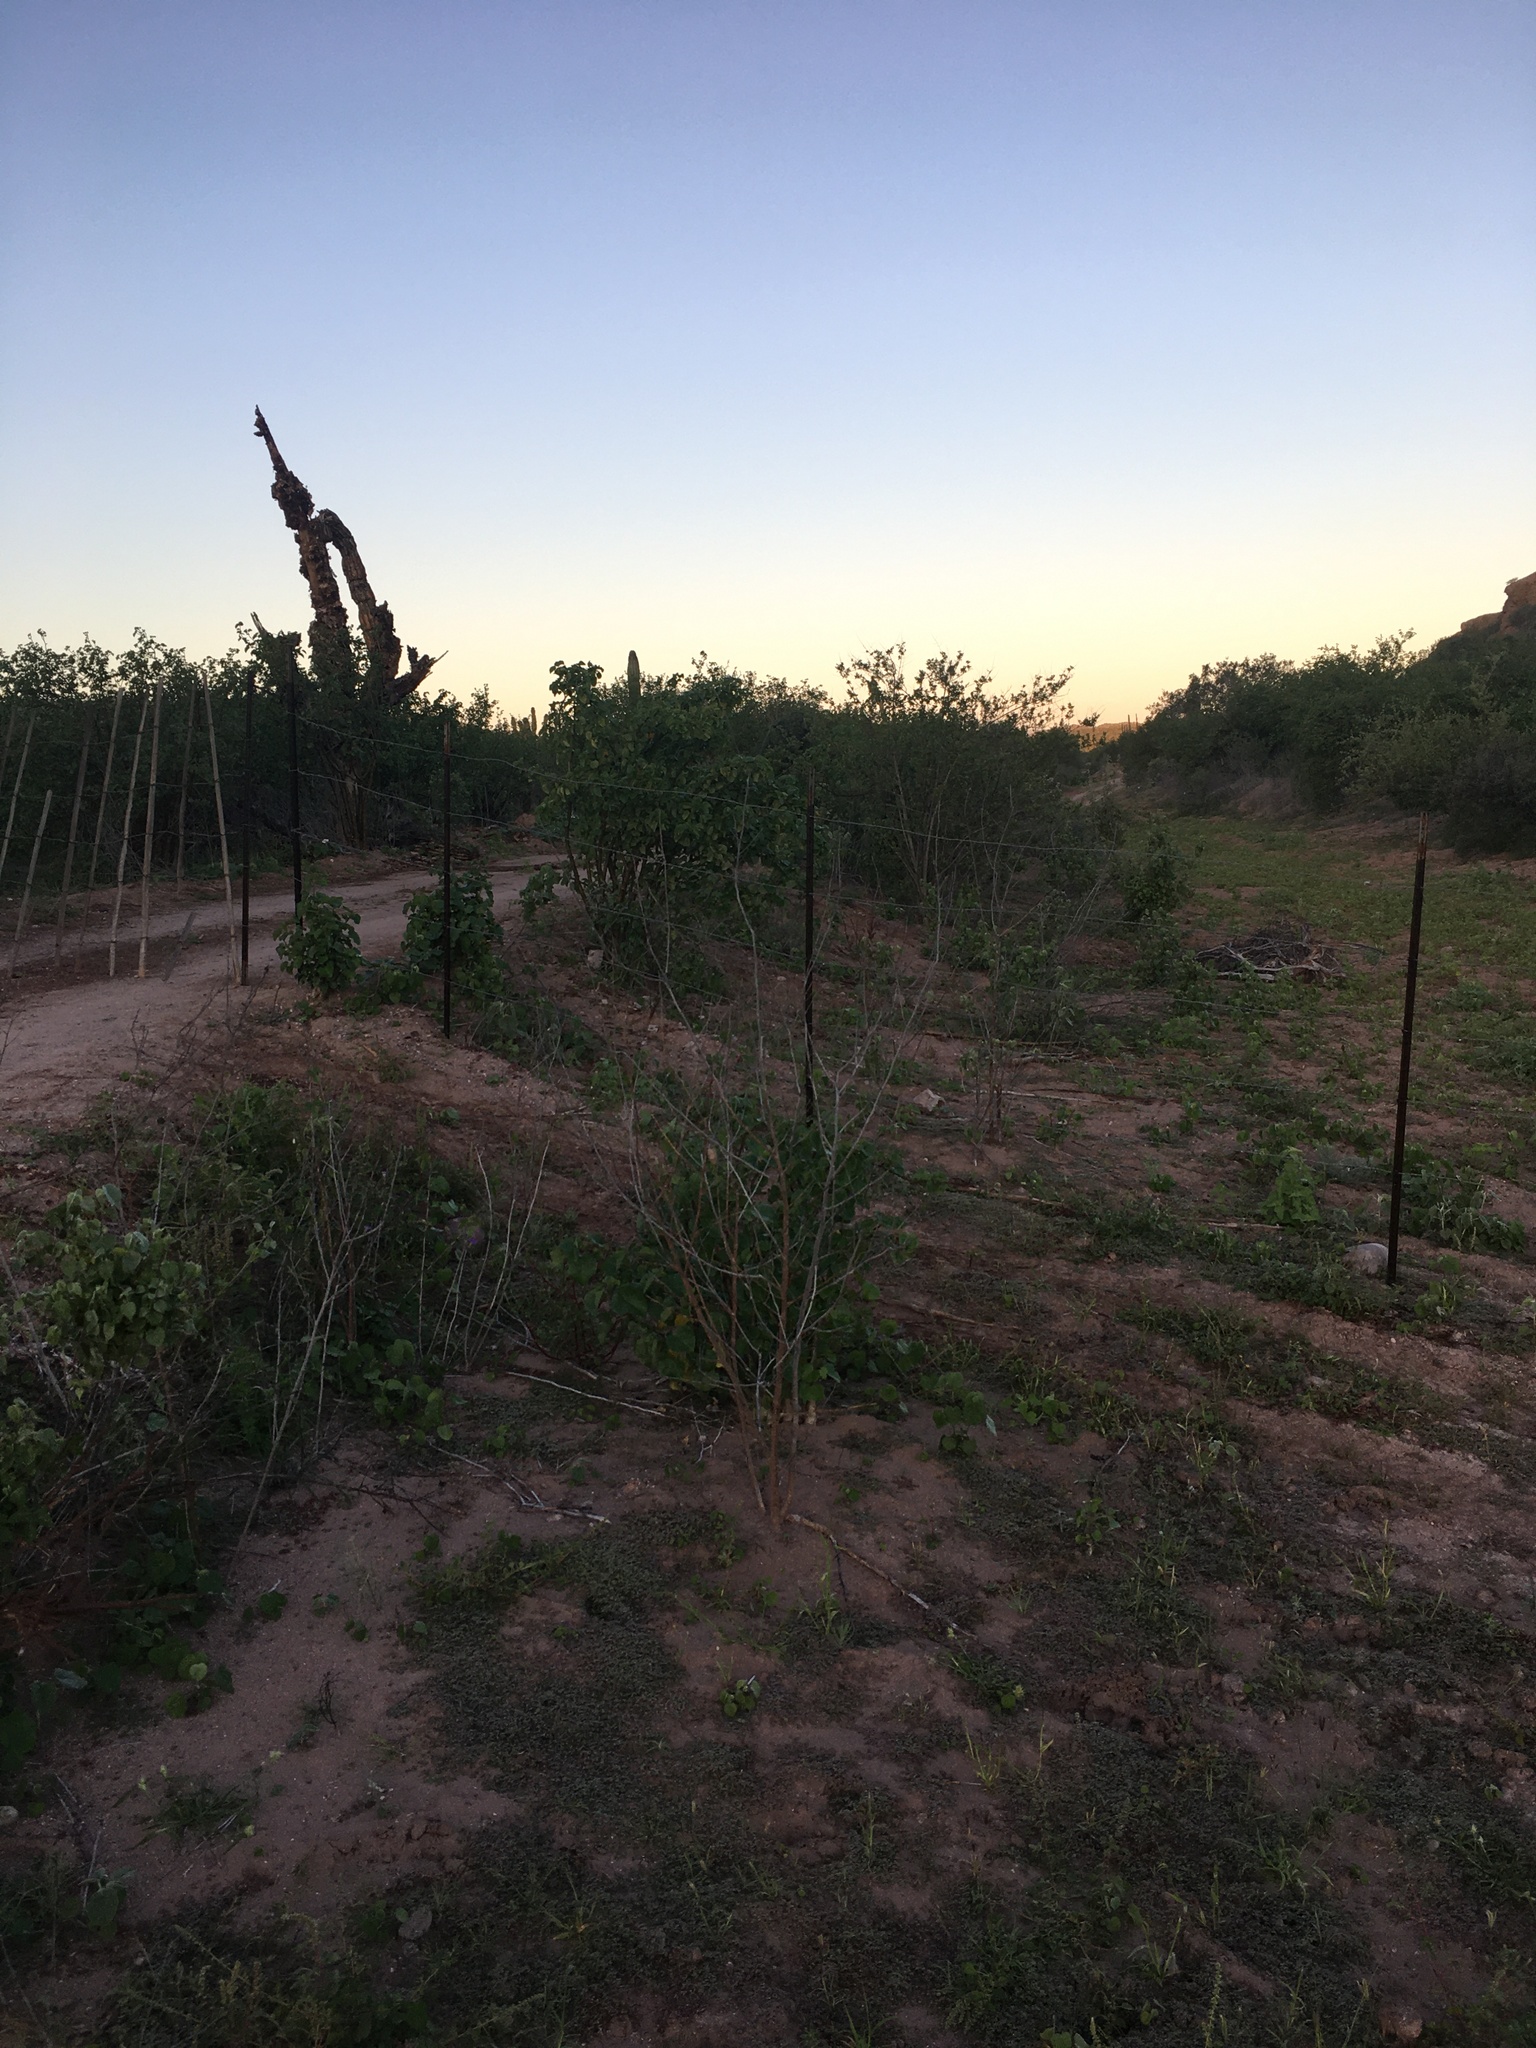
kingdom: Animalia
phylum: Chordata
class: Mammalia
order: Lagomorpha
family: Leporidae
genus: Lepus
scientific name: Lepus californicus
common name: Black-tailed jackrabbit
